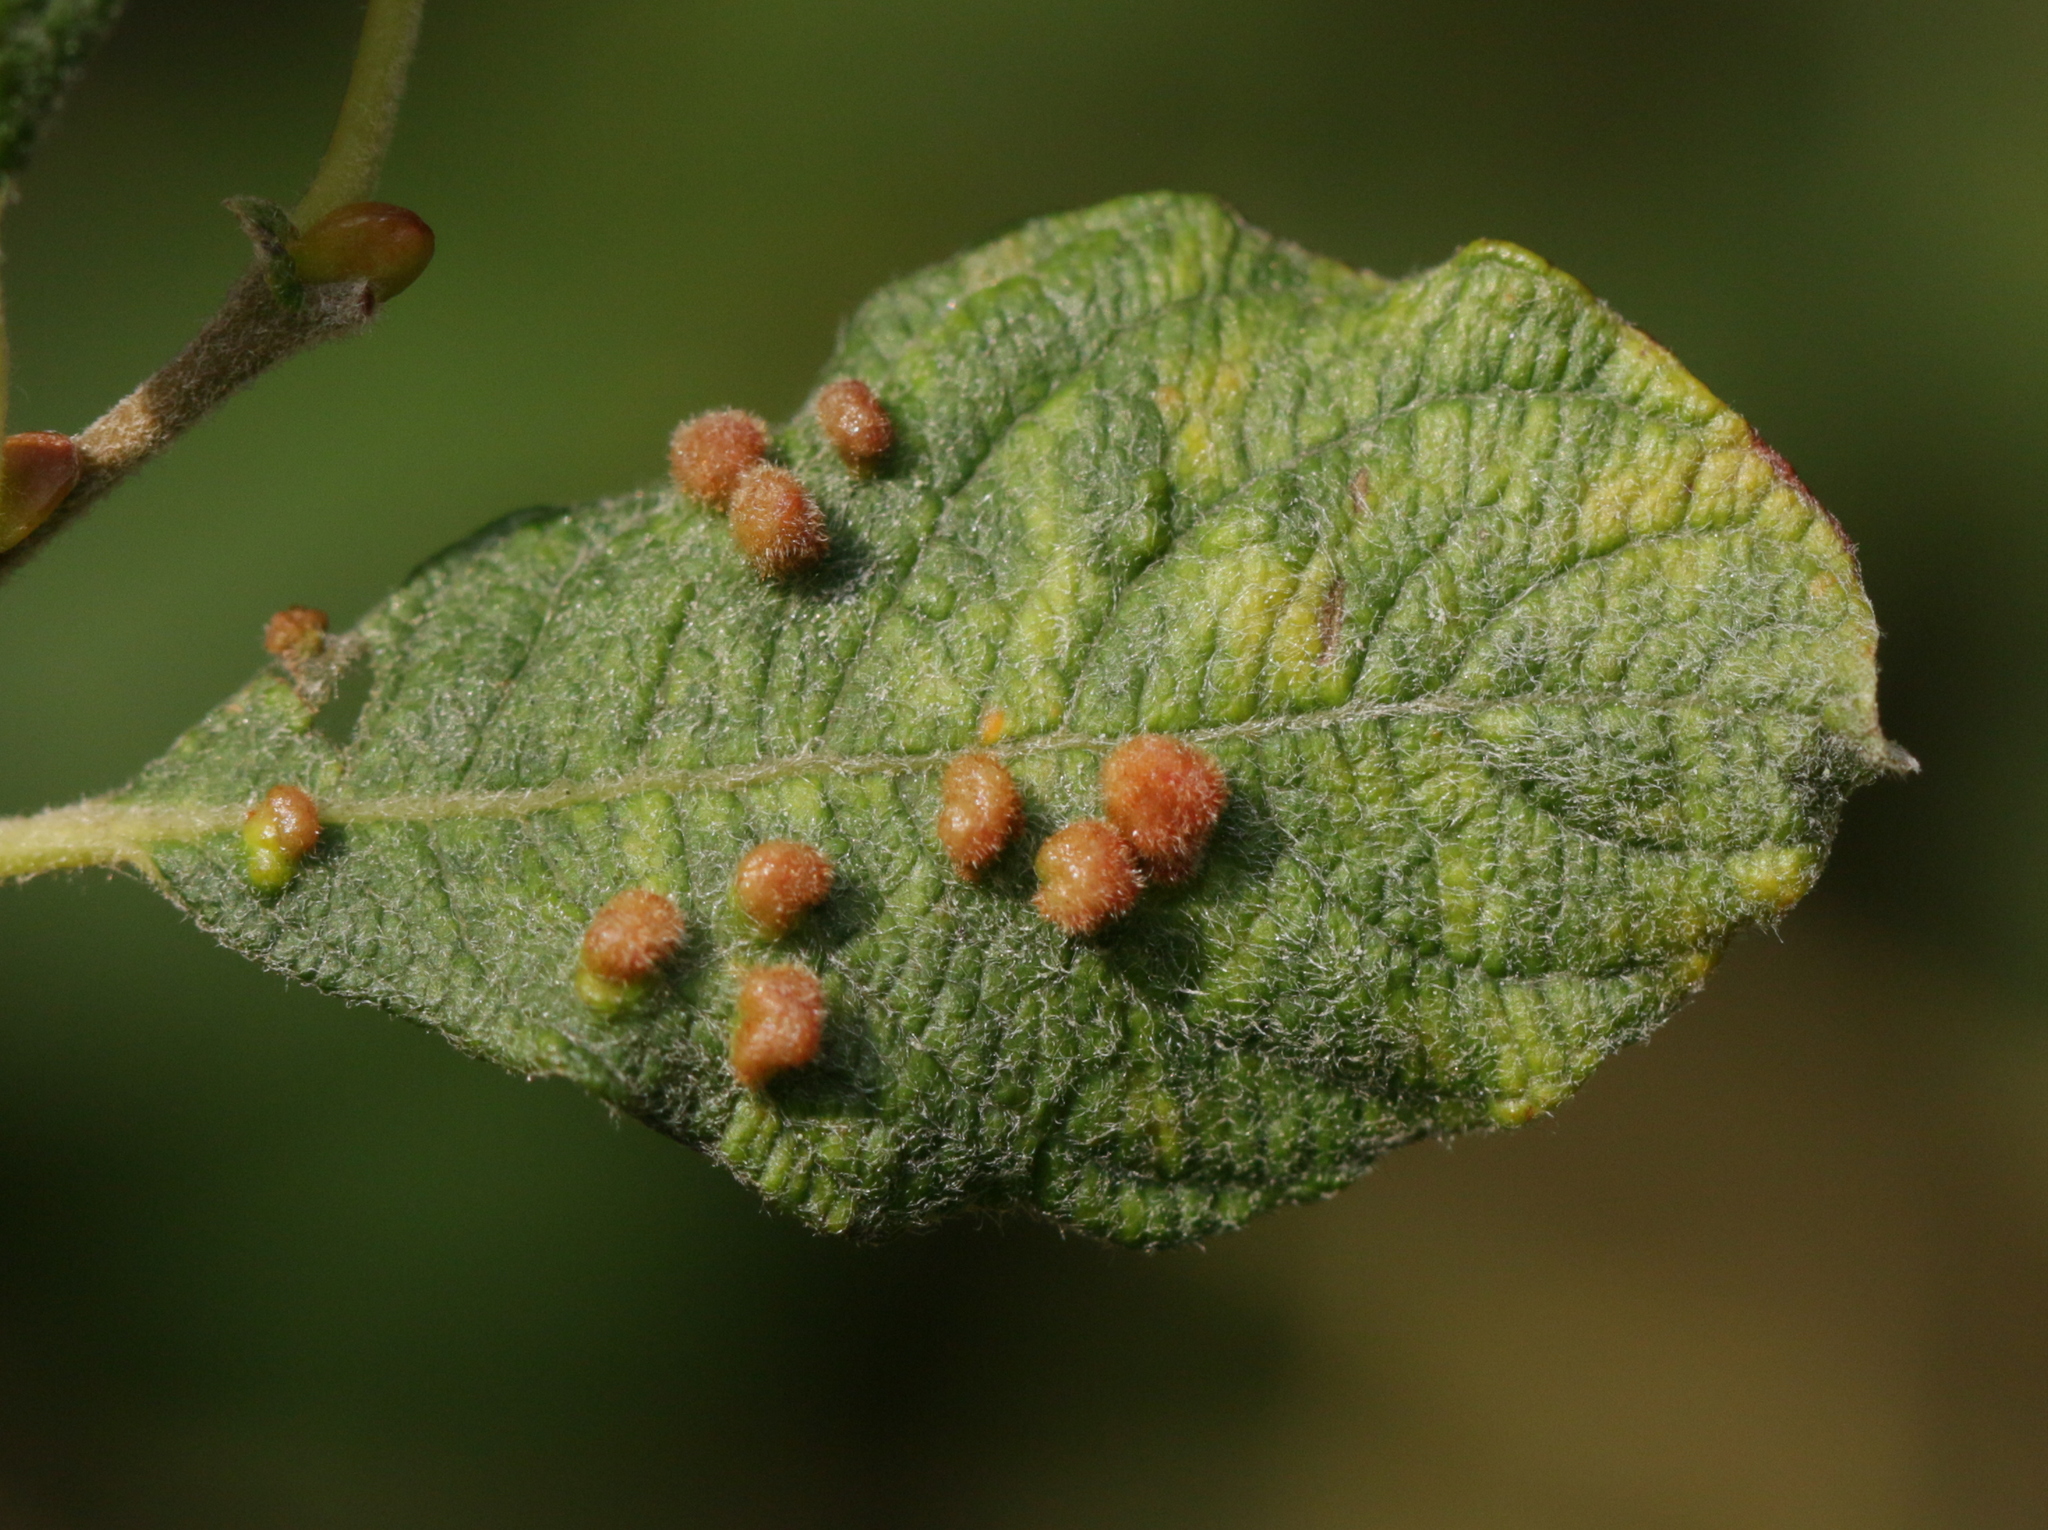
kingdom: Animalia
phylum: Arthropoda
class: Arachnida
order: Trombidiformes
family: Eriophyidae
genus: Aculus
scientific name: Aculus laevis
